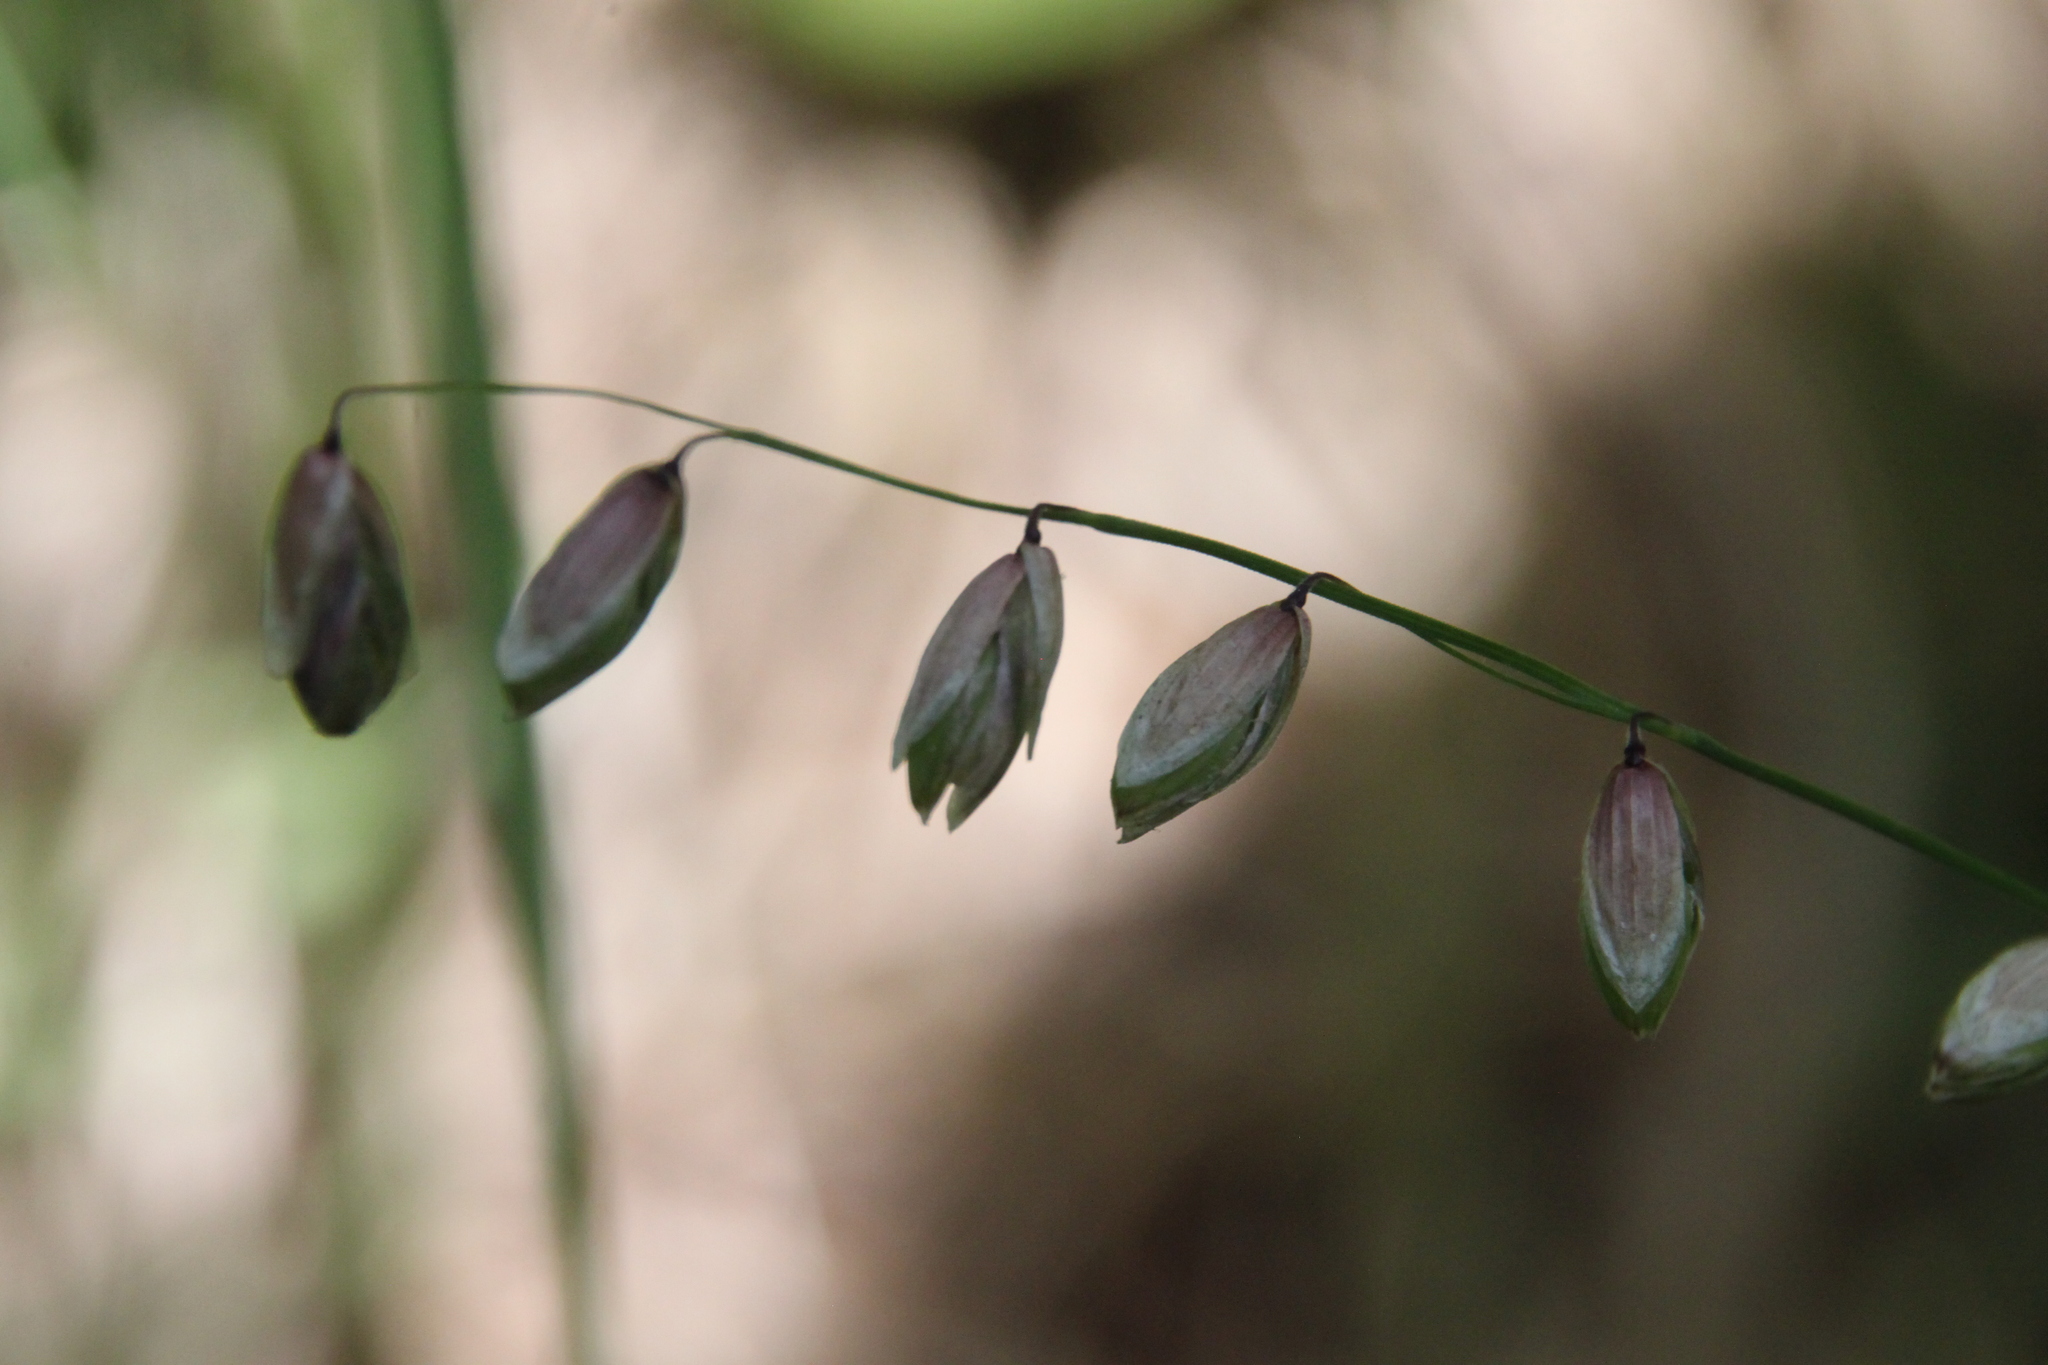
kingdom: Plantae
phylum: Tracheophyta
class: Liliopsida
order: Poales
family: Poaceae
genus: Melica
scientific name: Melica nutans
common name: Mountain melick
